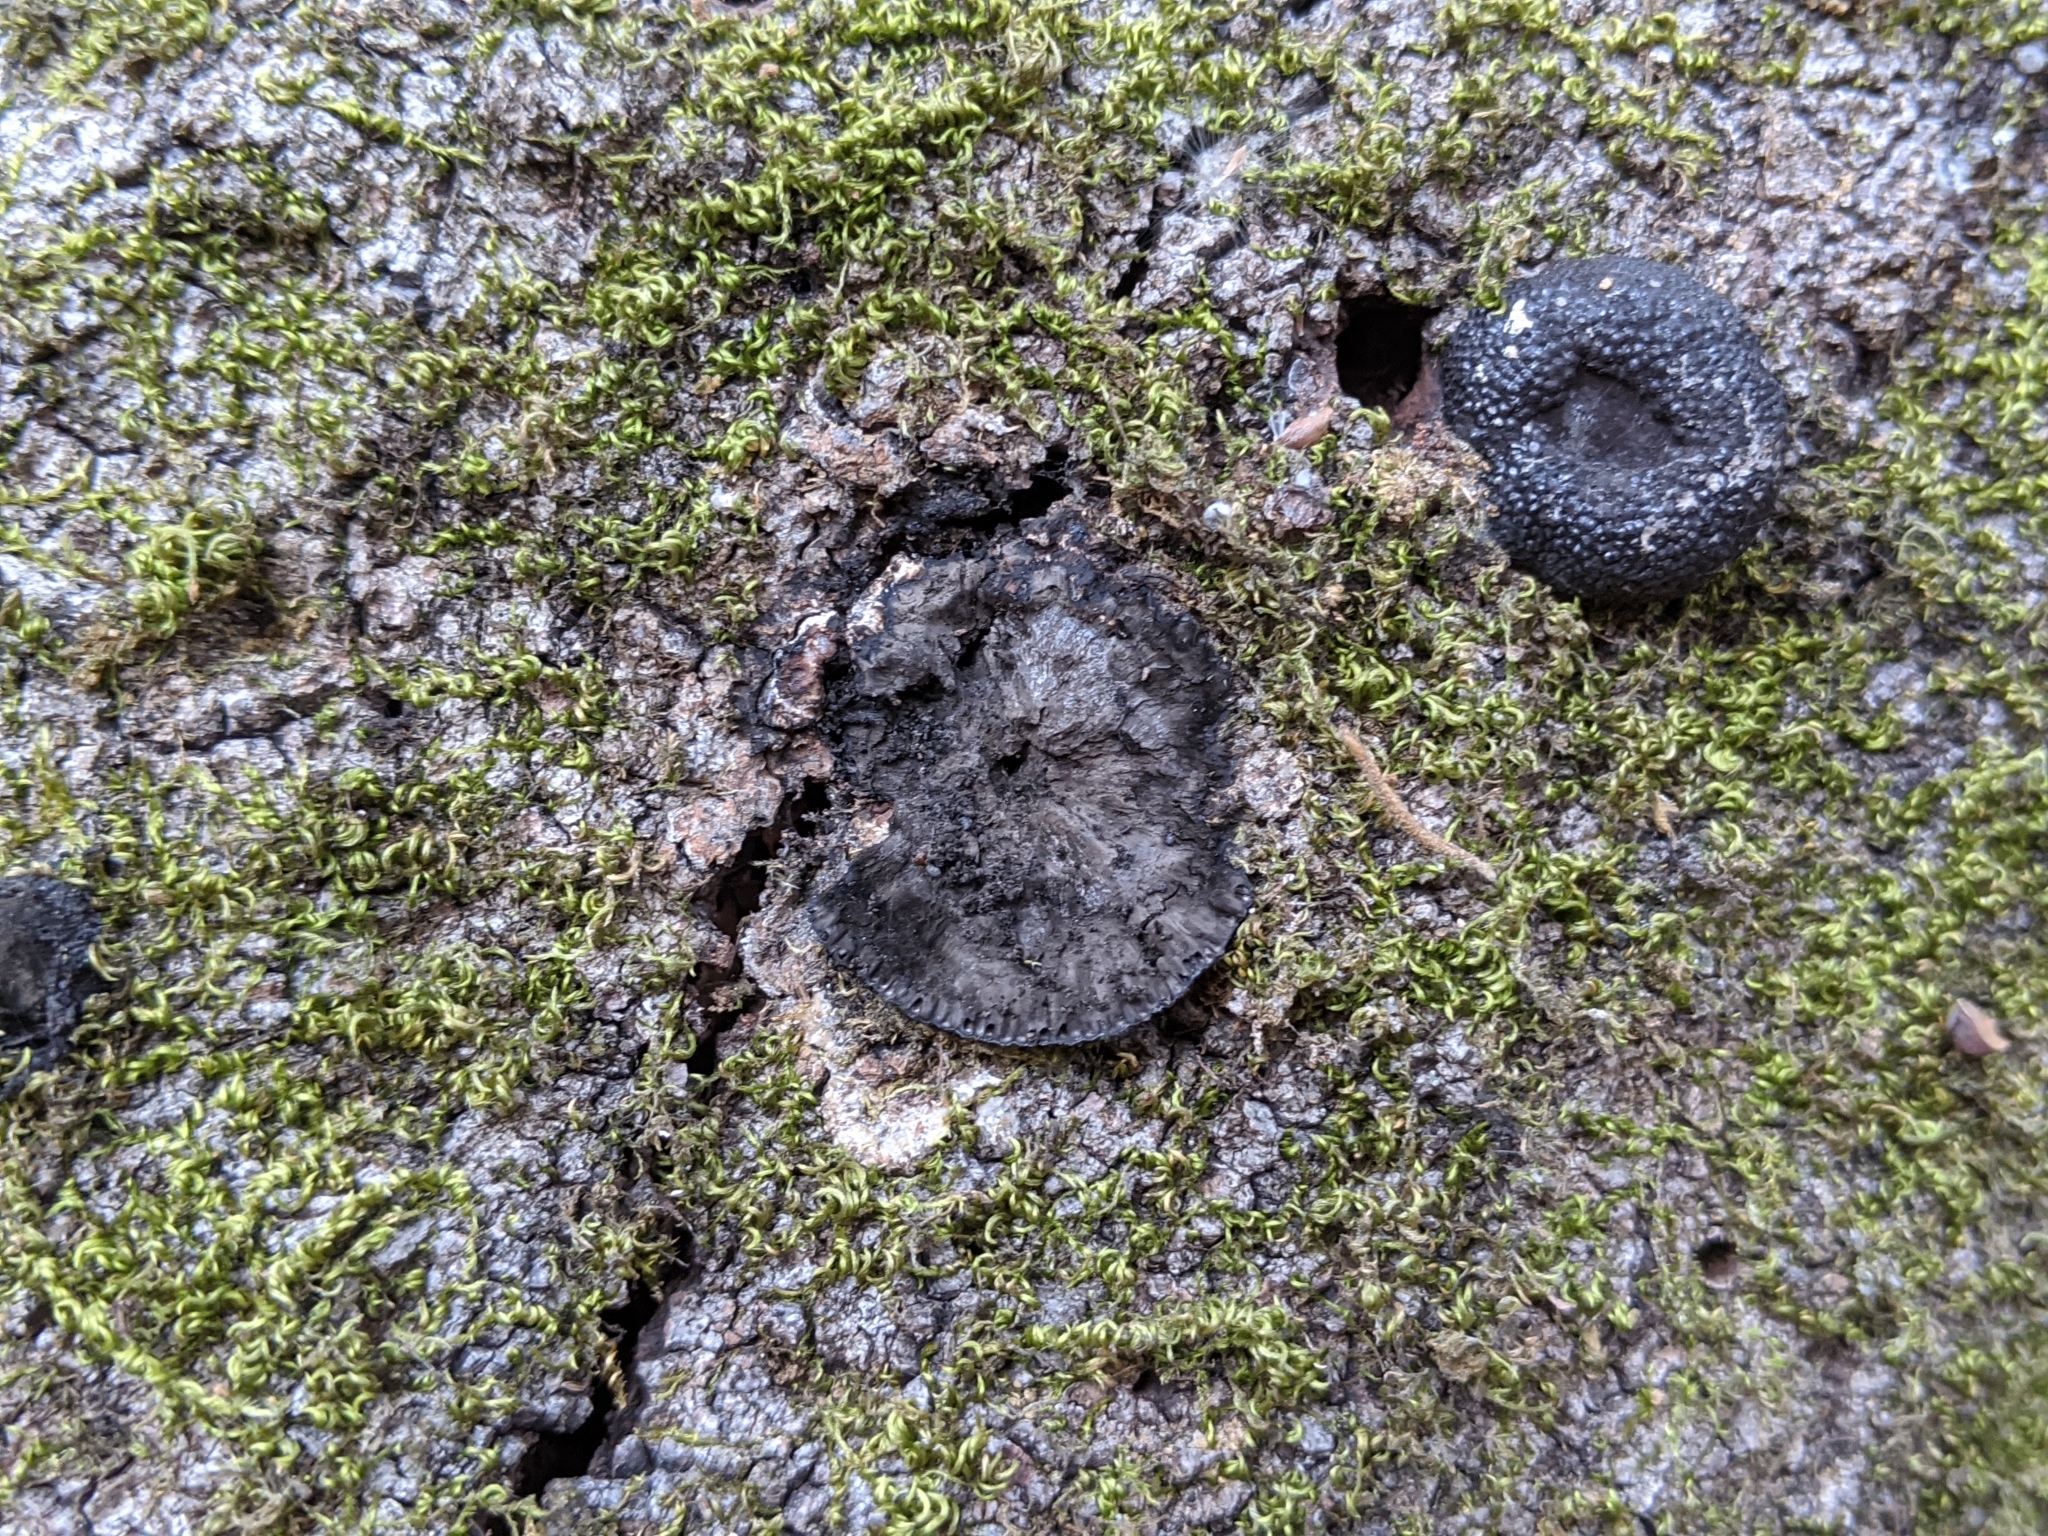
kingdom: Fungi
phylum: Ascomycota
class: Sordariomycetes
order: Xylariales
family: Hypoxylaceae
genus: Annulohypoxylon
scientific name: Annulohypoxylon thouarsianum
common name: Cramp balls
